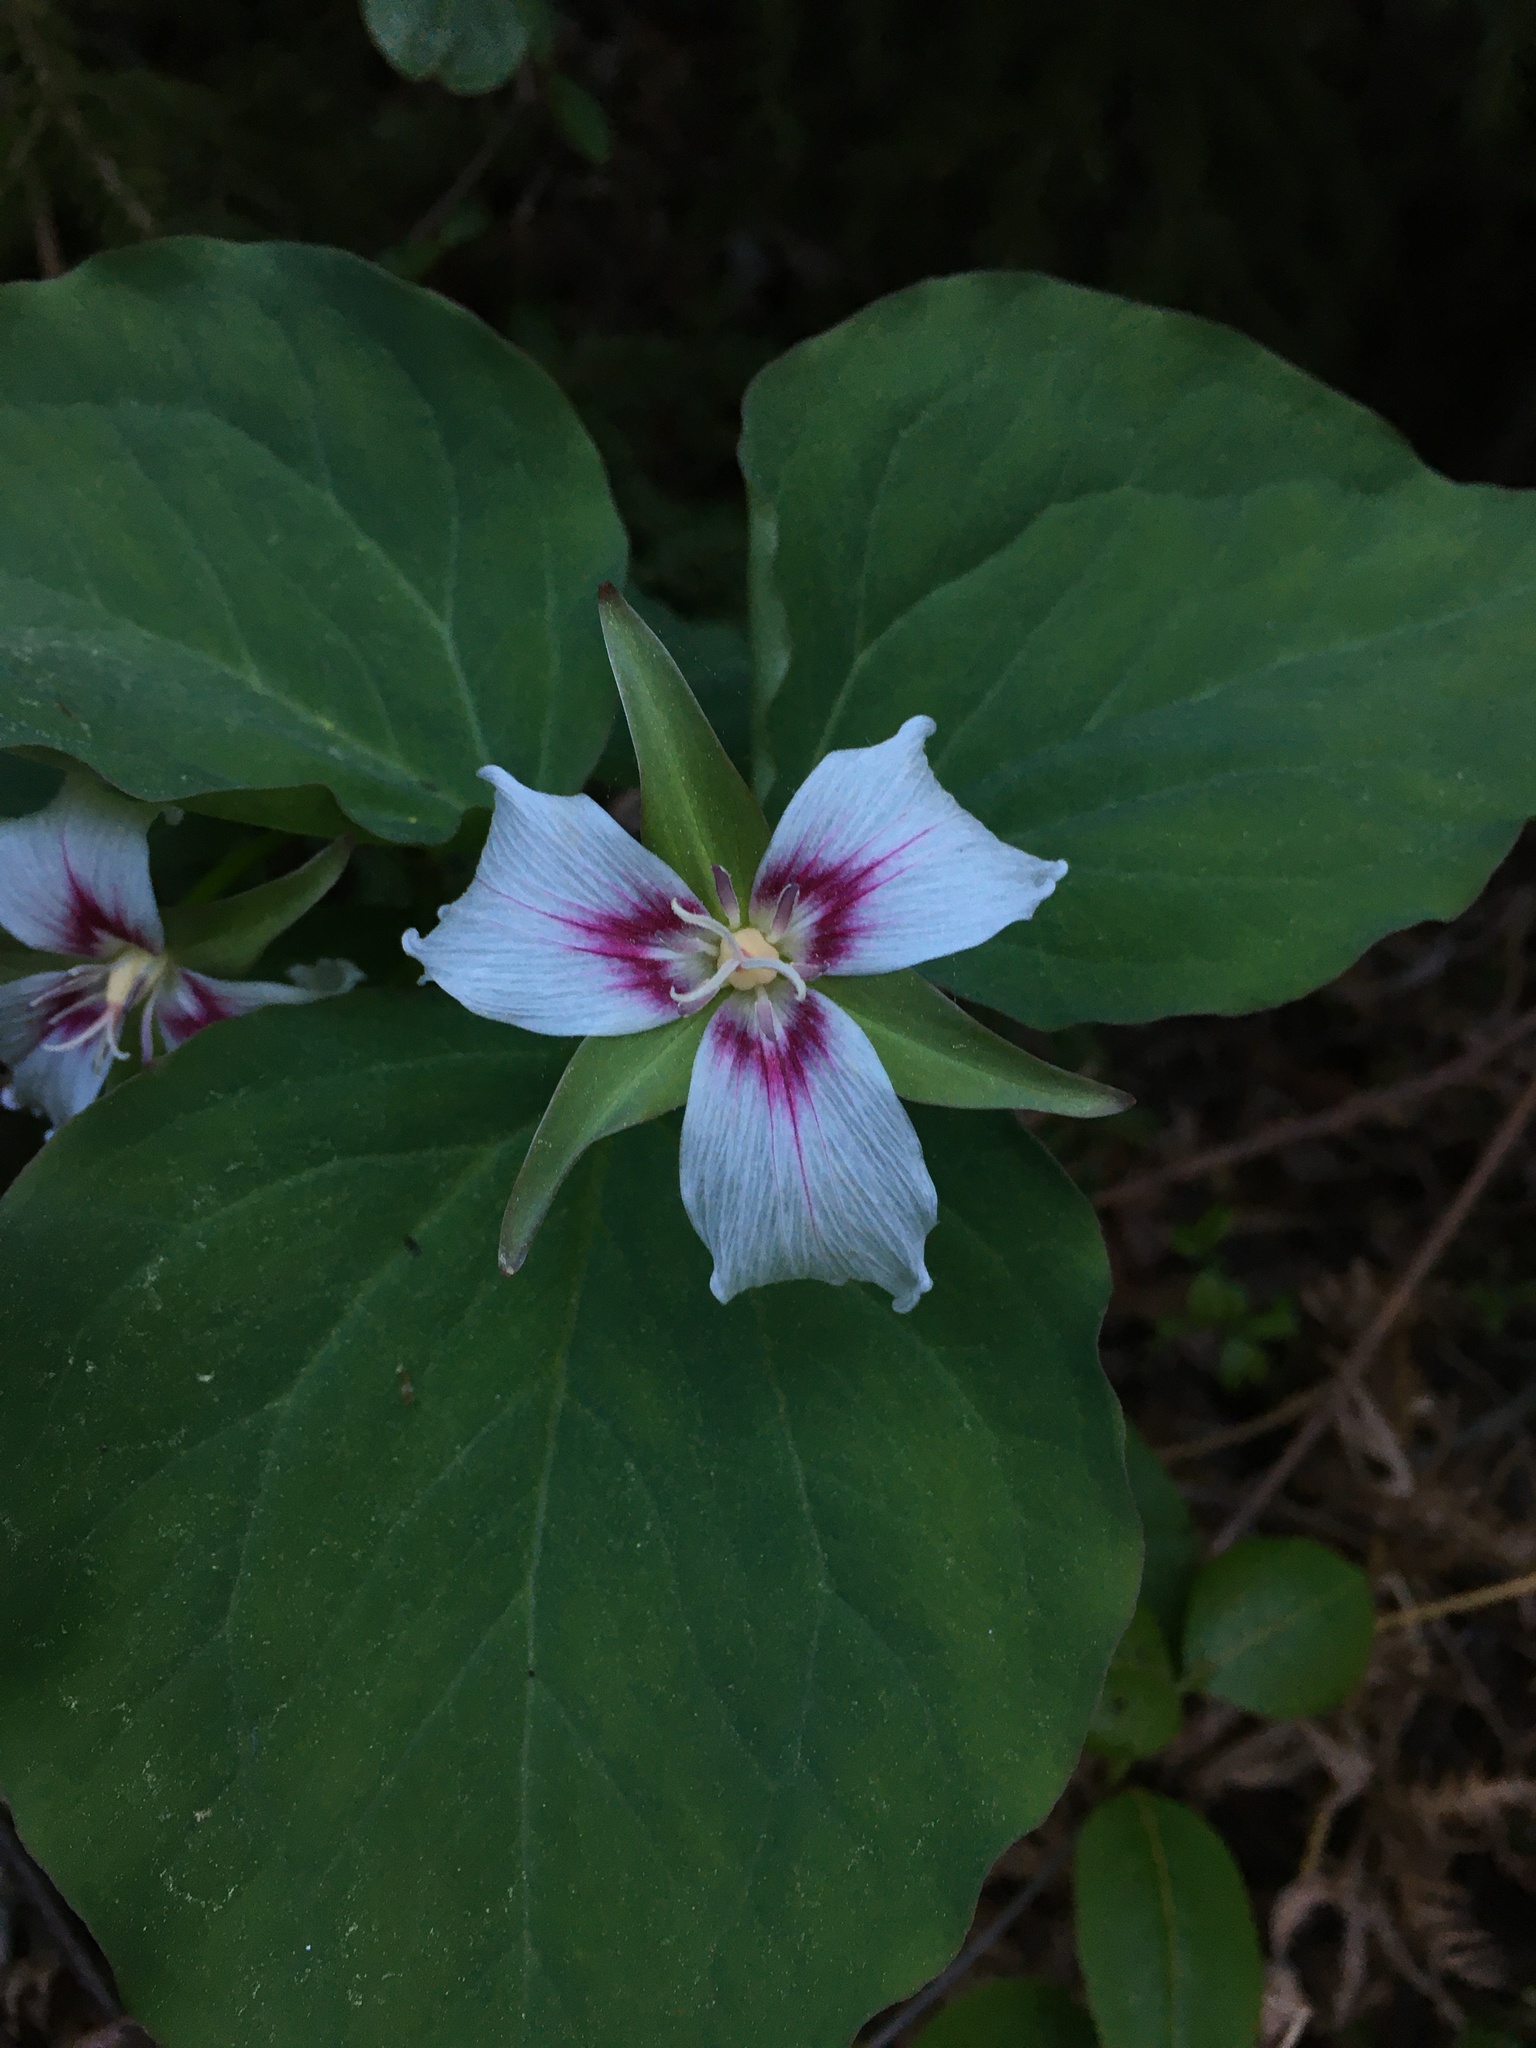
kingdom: Plantae
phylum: Tracheophyta
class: Liliopsida
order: Liliales
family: Melanthiaceae
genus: Trillium
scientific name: Trillium undulatum
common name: Paint trillium
